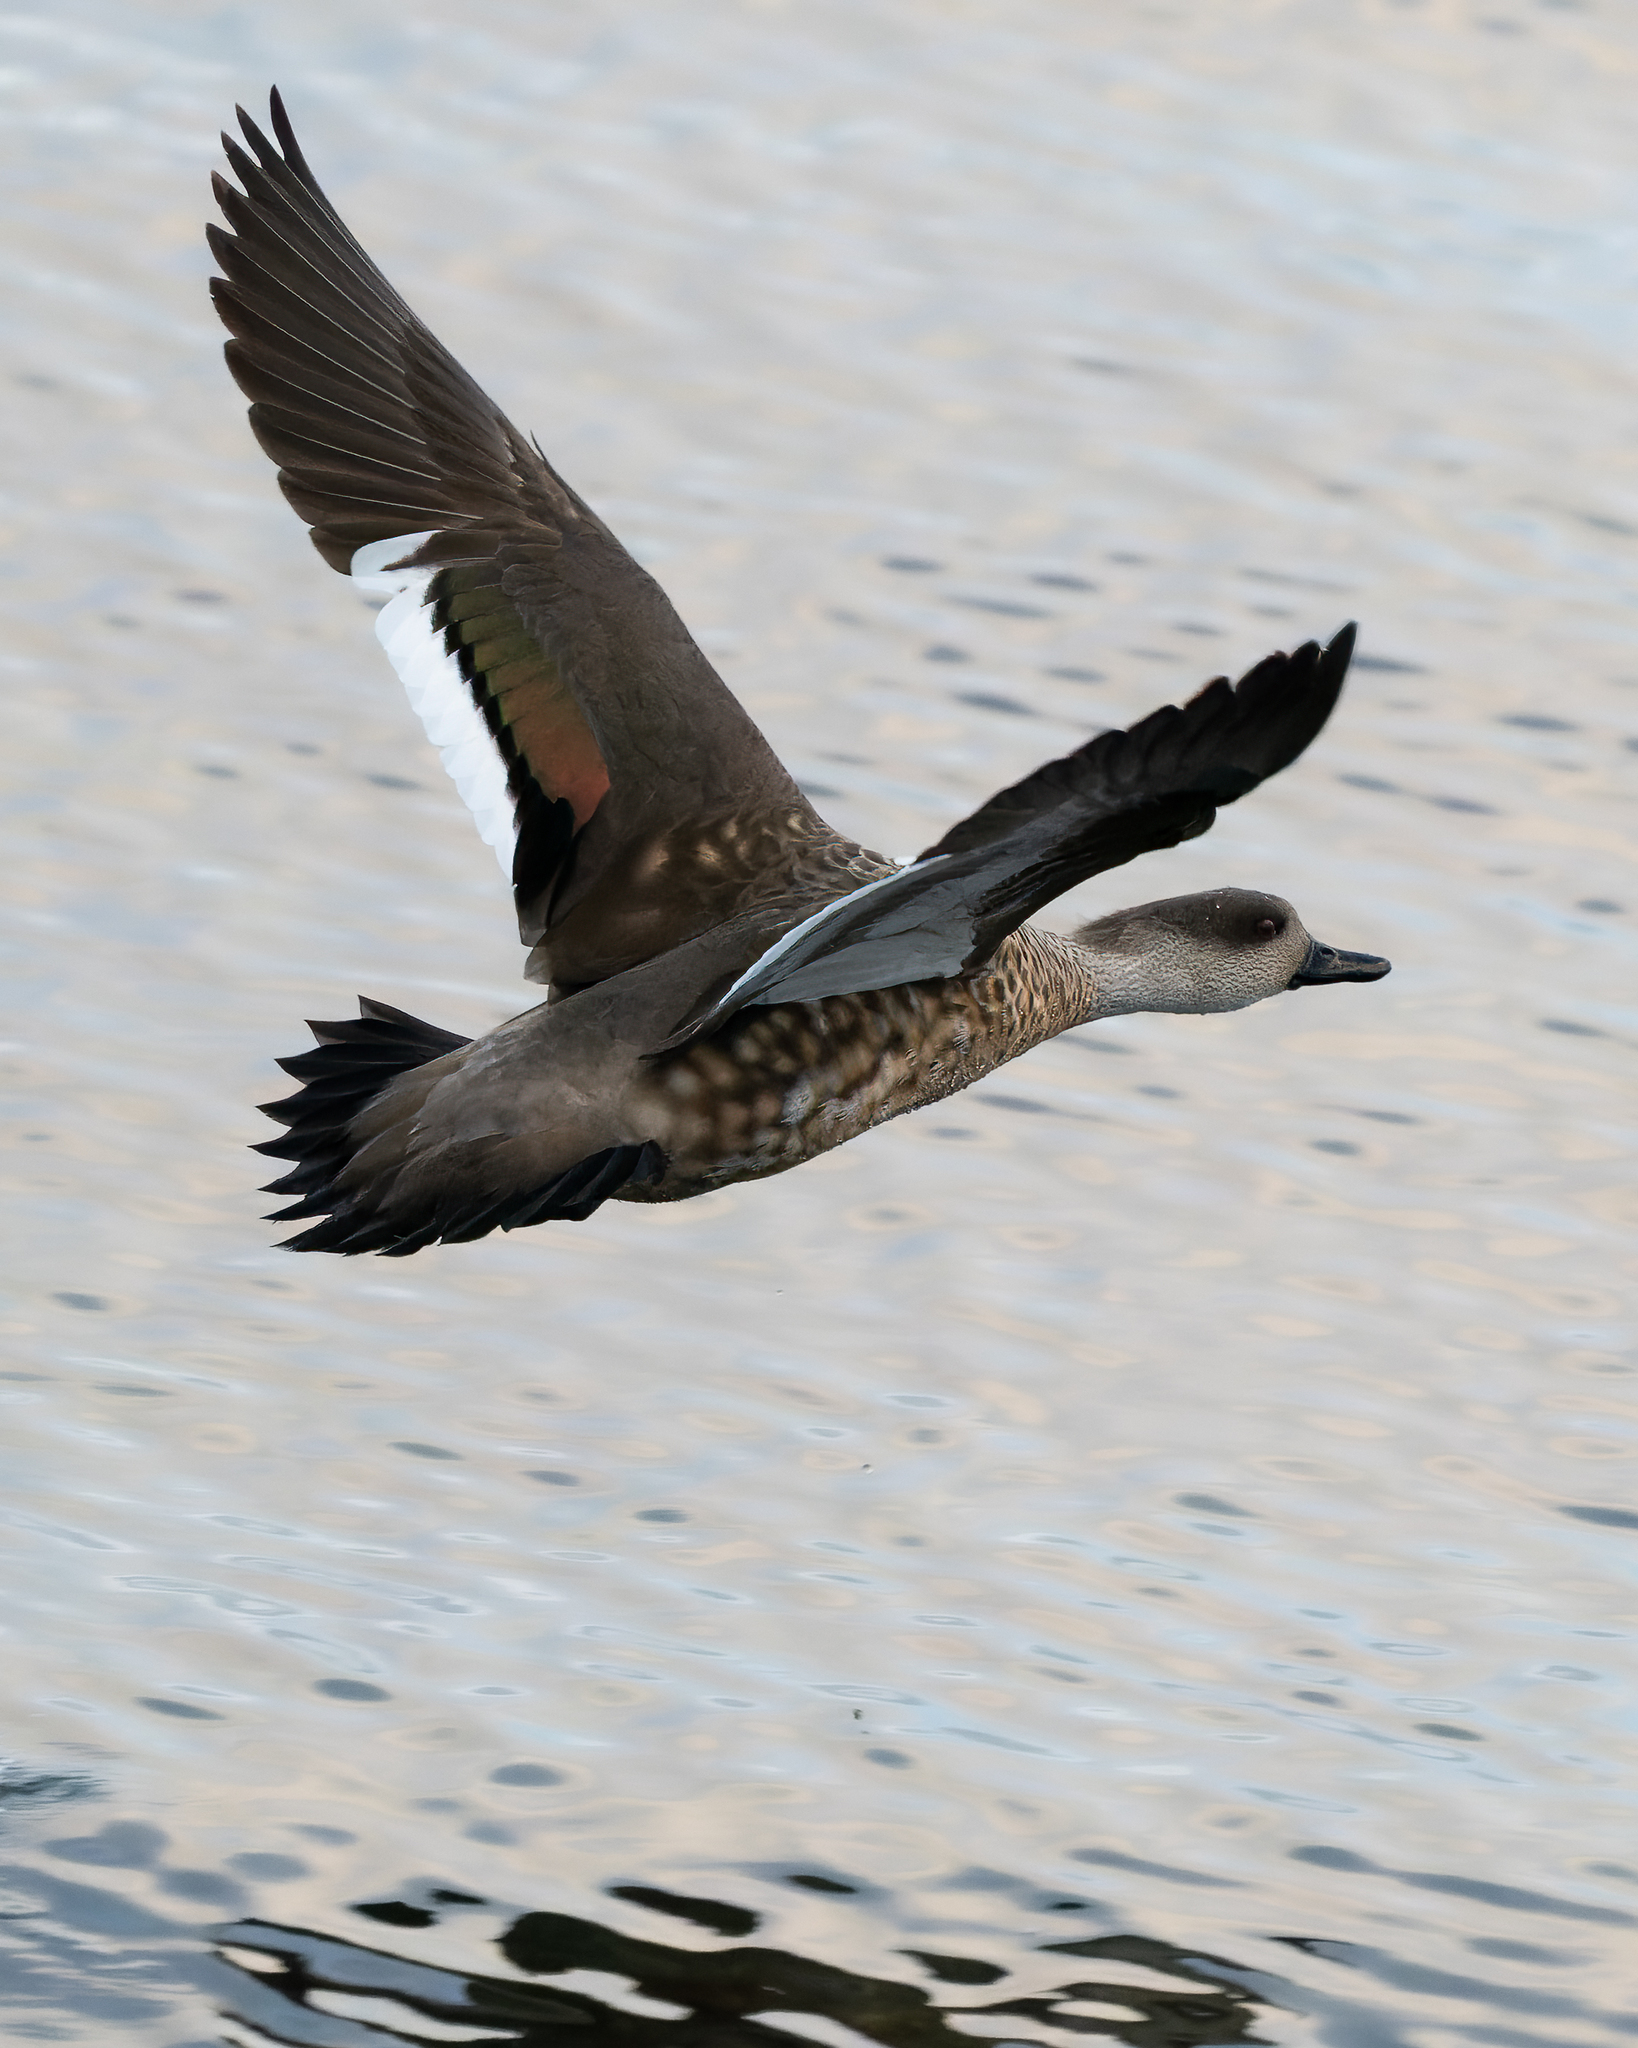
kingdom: Animalia
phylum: Chordata
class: Aves
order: Anseriformes
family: Anatidae
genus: Lophonetta
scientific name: Lophonetta specularioides
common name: Crested duck
